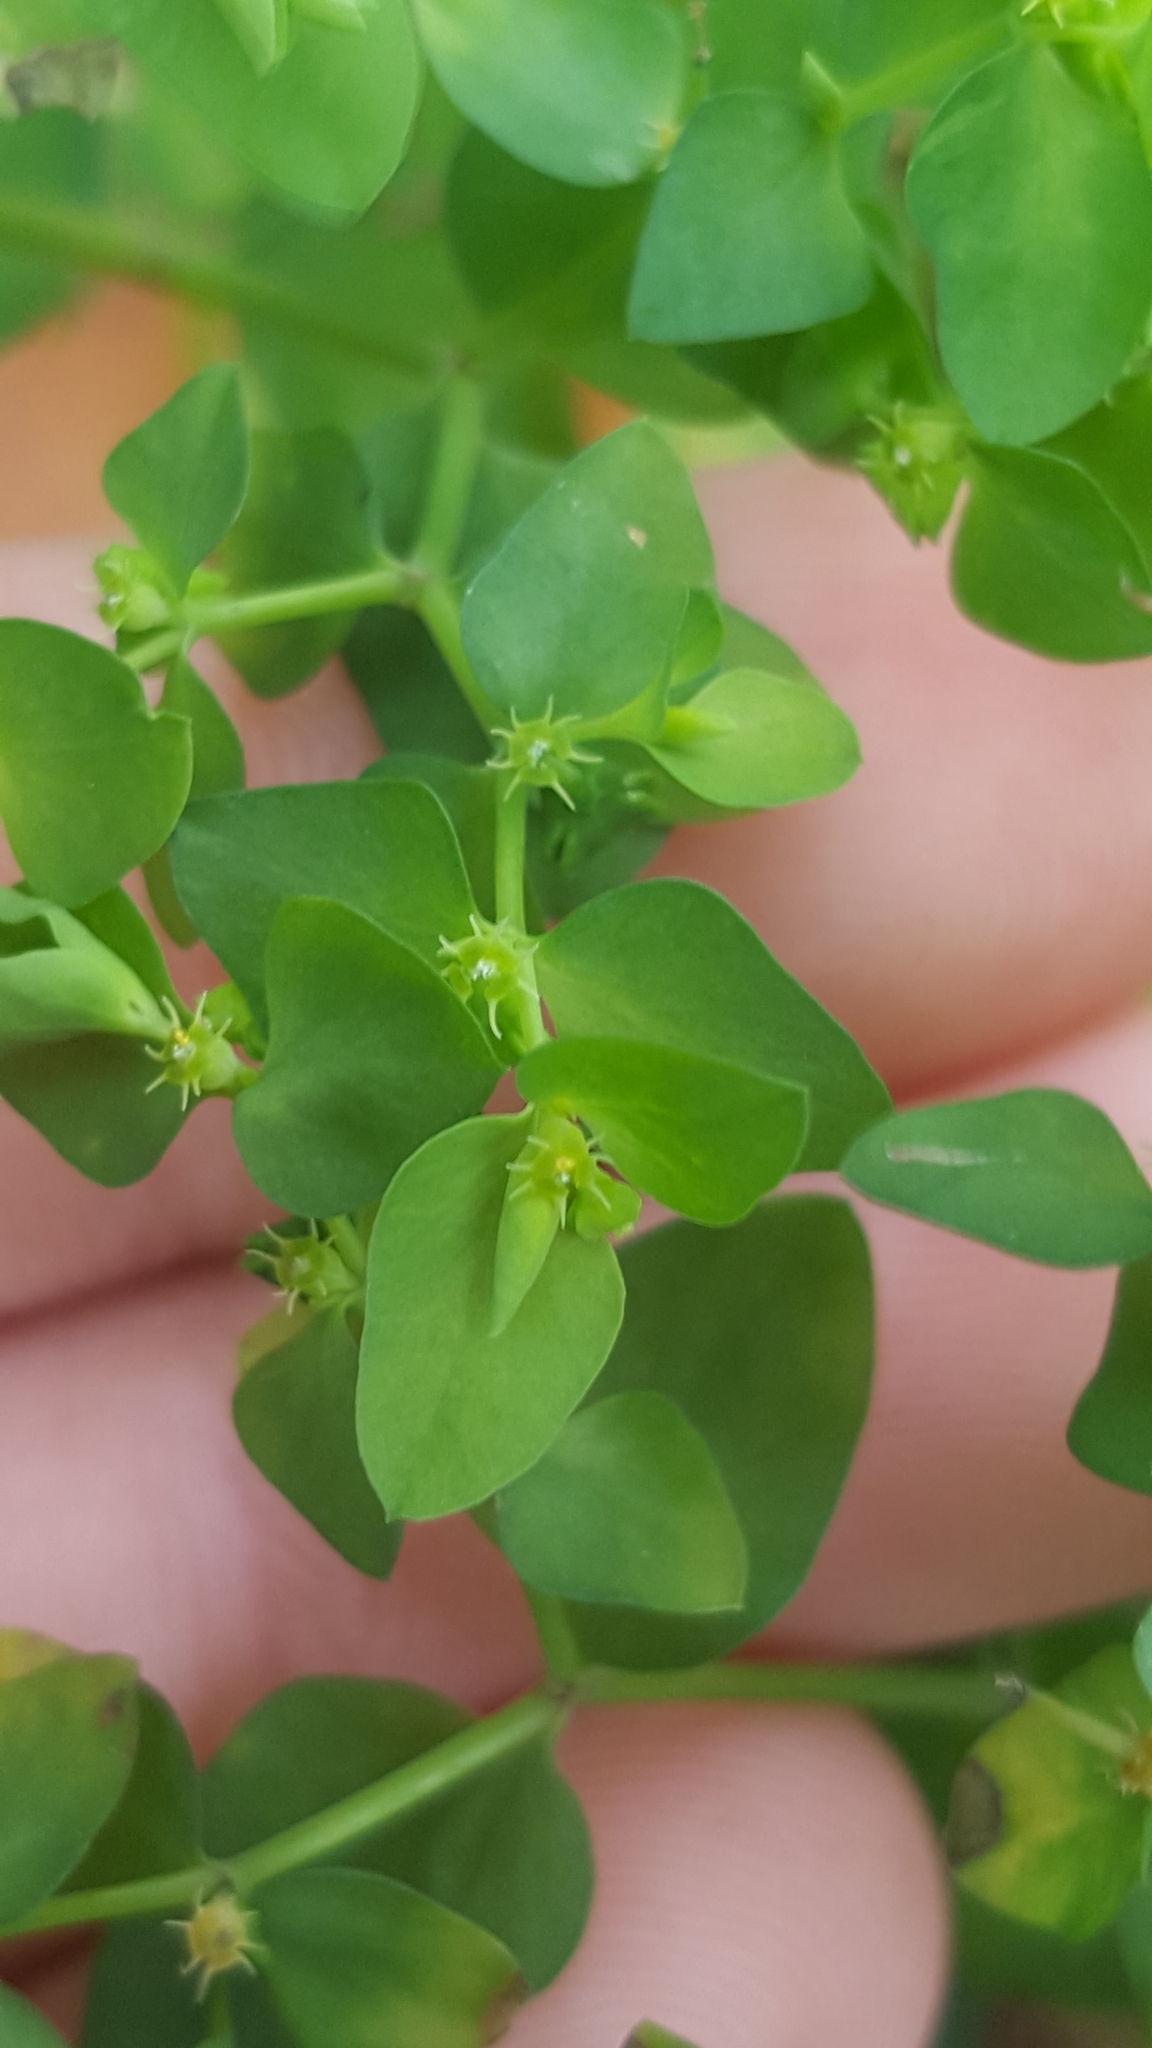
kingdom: Plantae
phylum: Tracheophyta
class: Magnoliopsida
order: Malpighiales
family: Euphorbiaceae
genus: Euphorbia
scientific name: Euphorbia peplus
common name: Petty spurge
